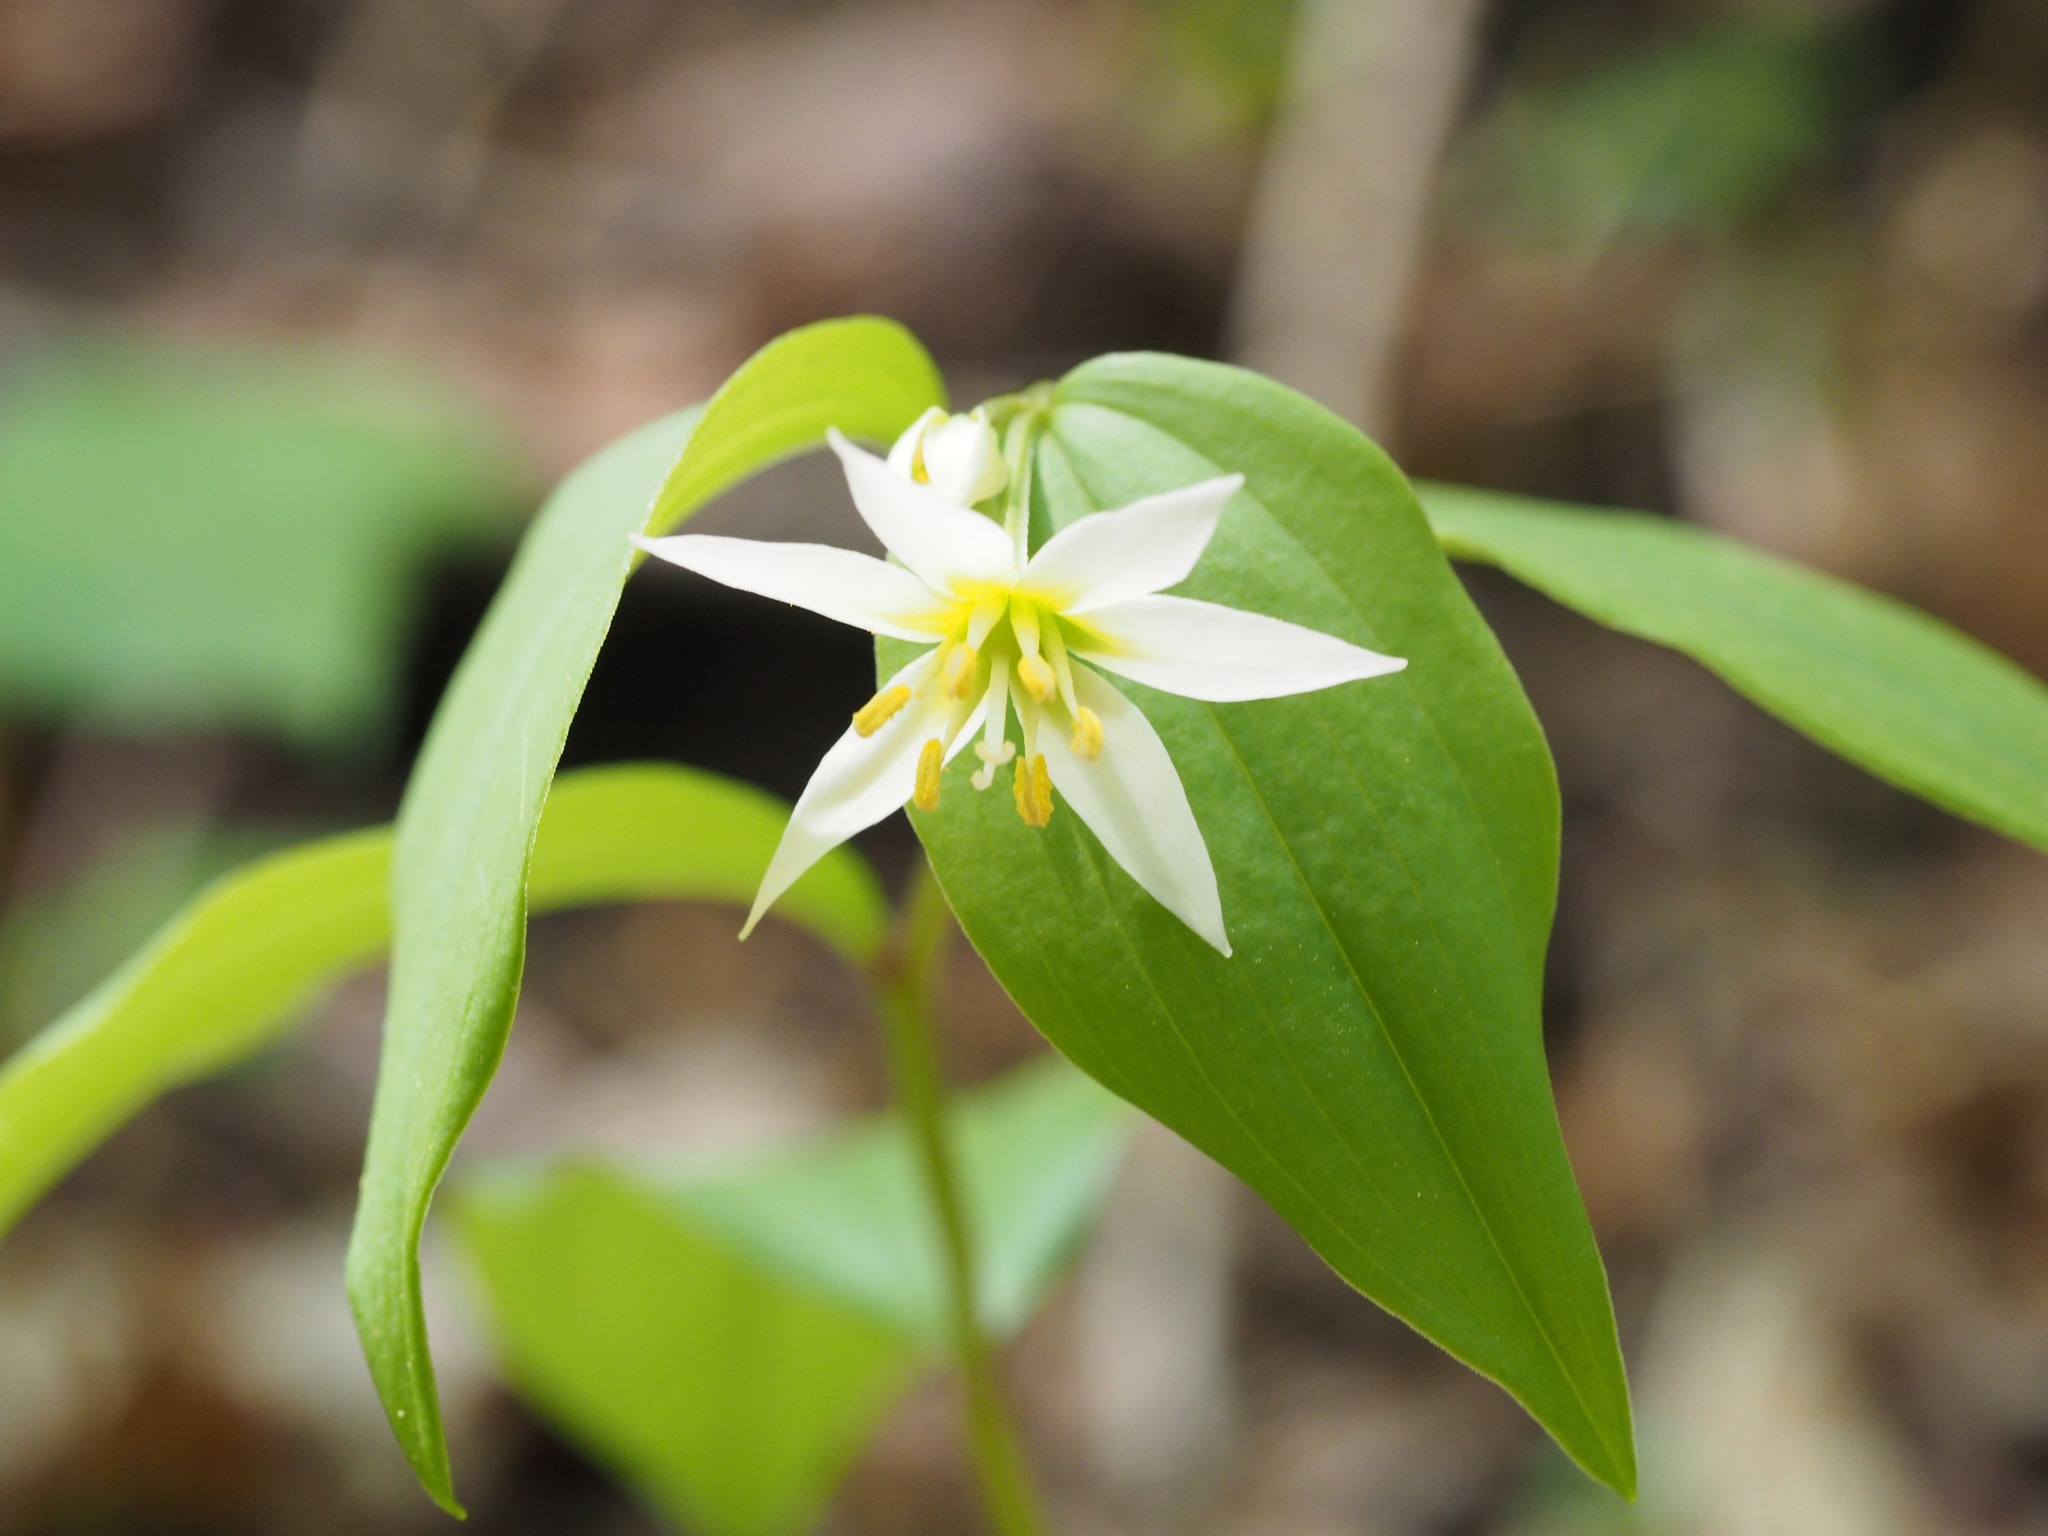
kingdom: Plantae
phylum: Tracheophyta
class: Liliopsida
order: Liliales
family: Colchicaceae
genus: Disporum
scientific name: Disporum smilacinum
